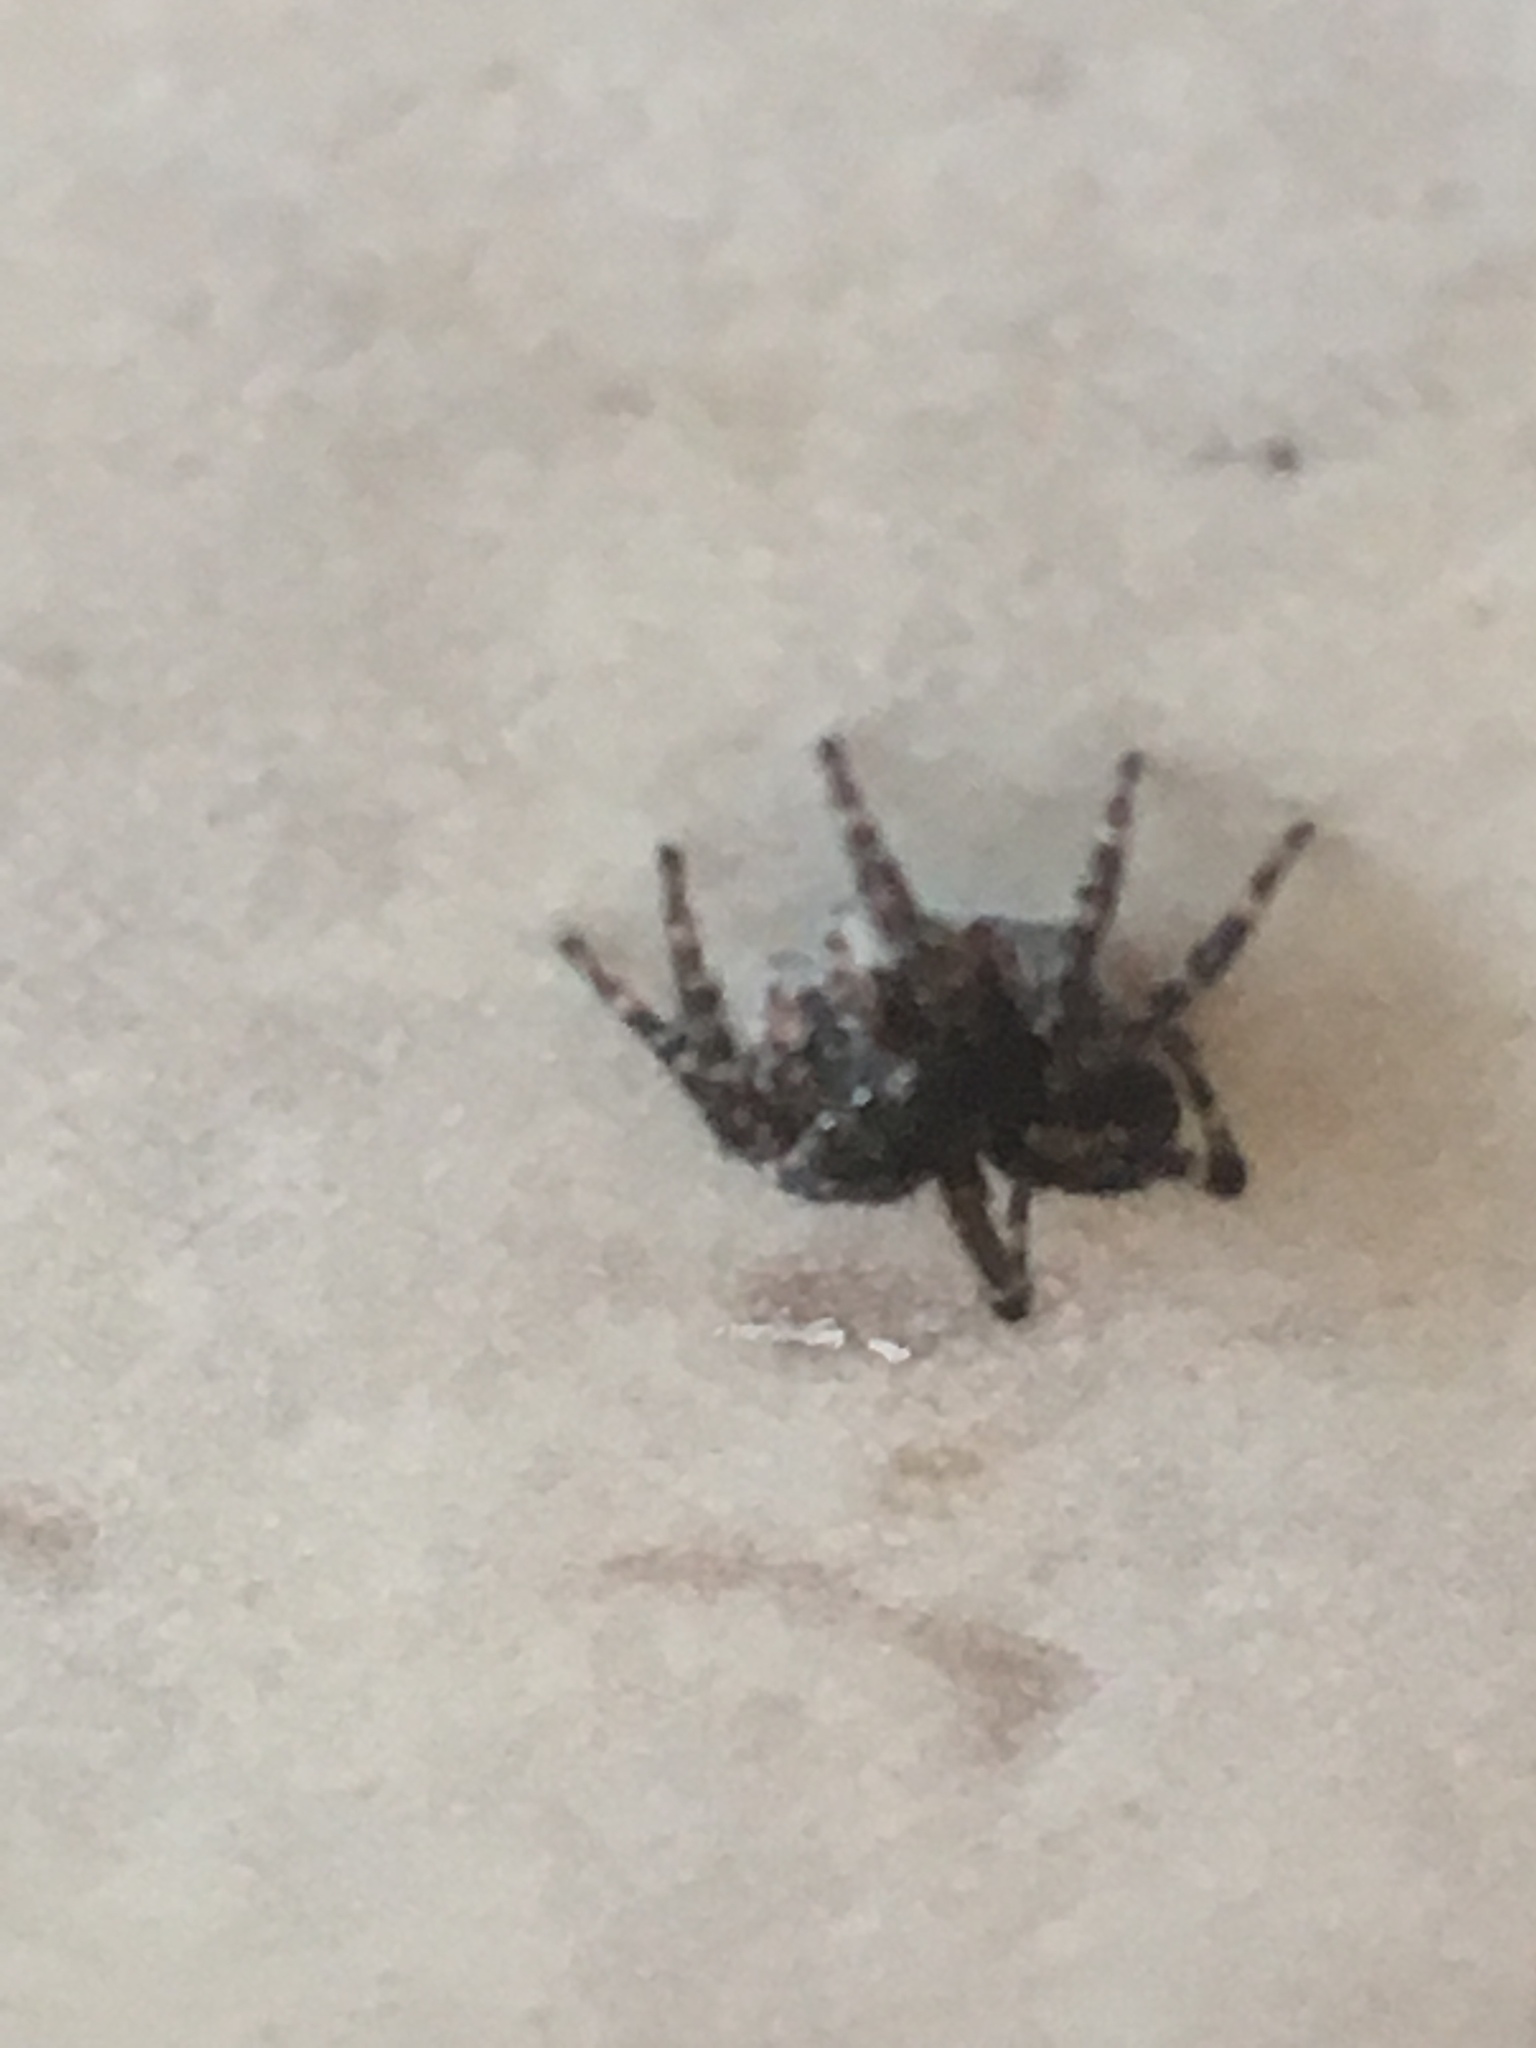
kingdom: Animalia
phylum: Arthropoda
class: Arachnida
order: Araneae
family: Salticidae
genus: Attulus
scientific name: Attulus pubescens
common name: Jumping spider
